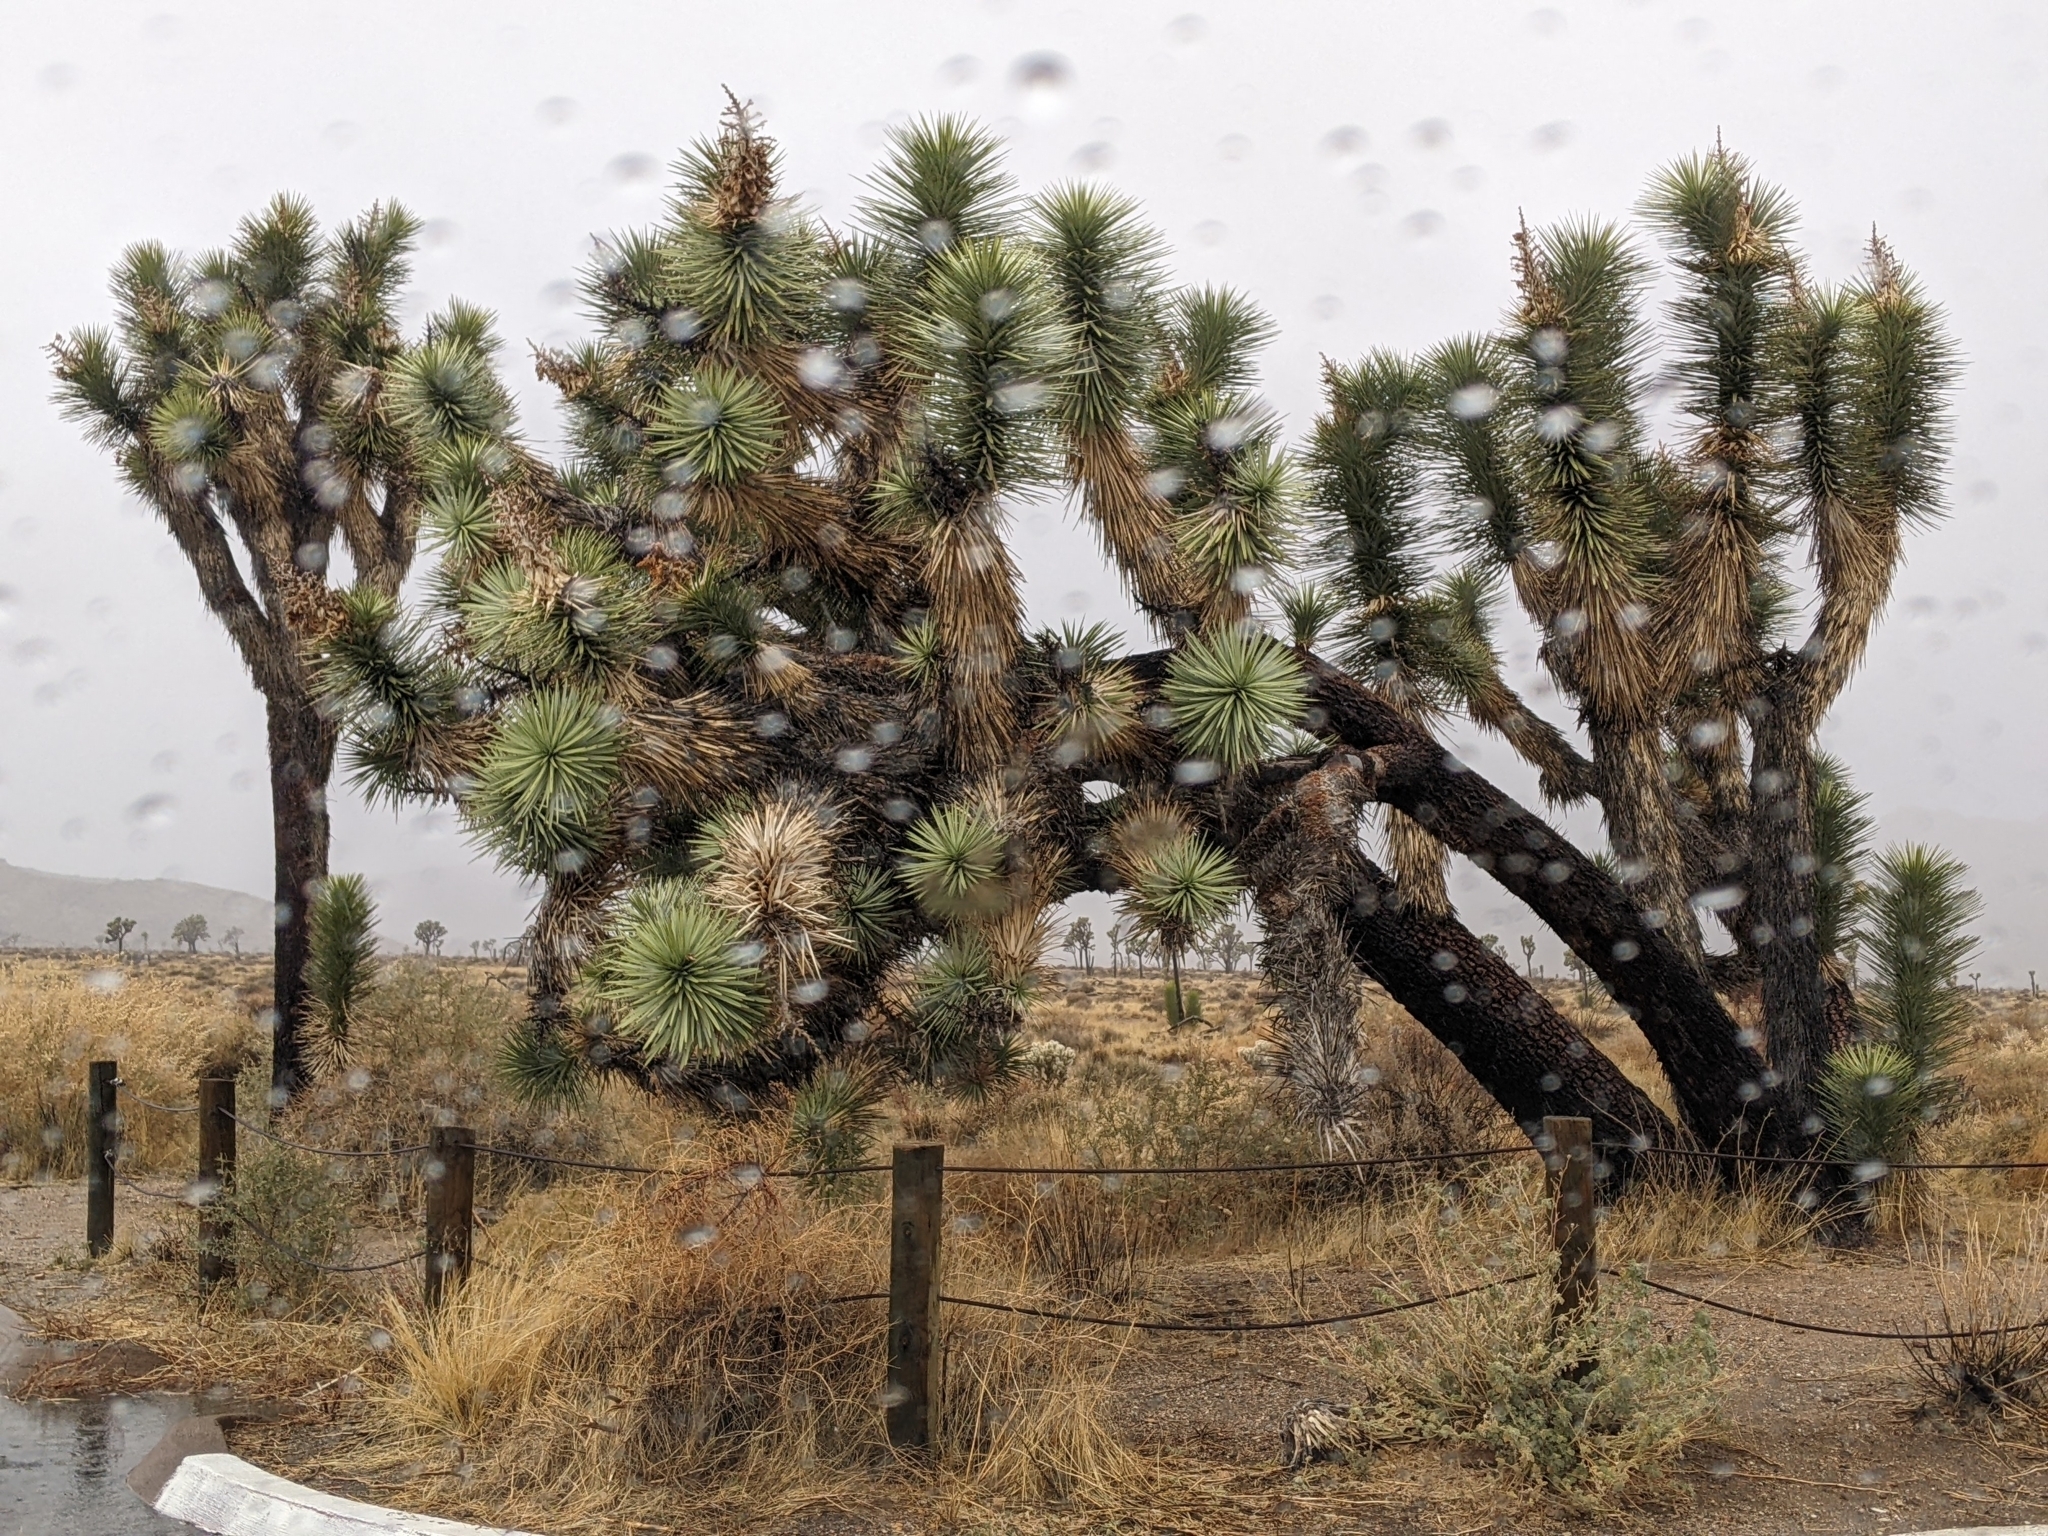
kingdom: Plantae
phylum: Tracheophyta
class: Liliopsida
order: Asparagales
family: Asparagaceae
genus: Yucca
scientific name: Yucca brevifolia
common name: Joshua tree
